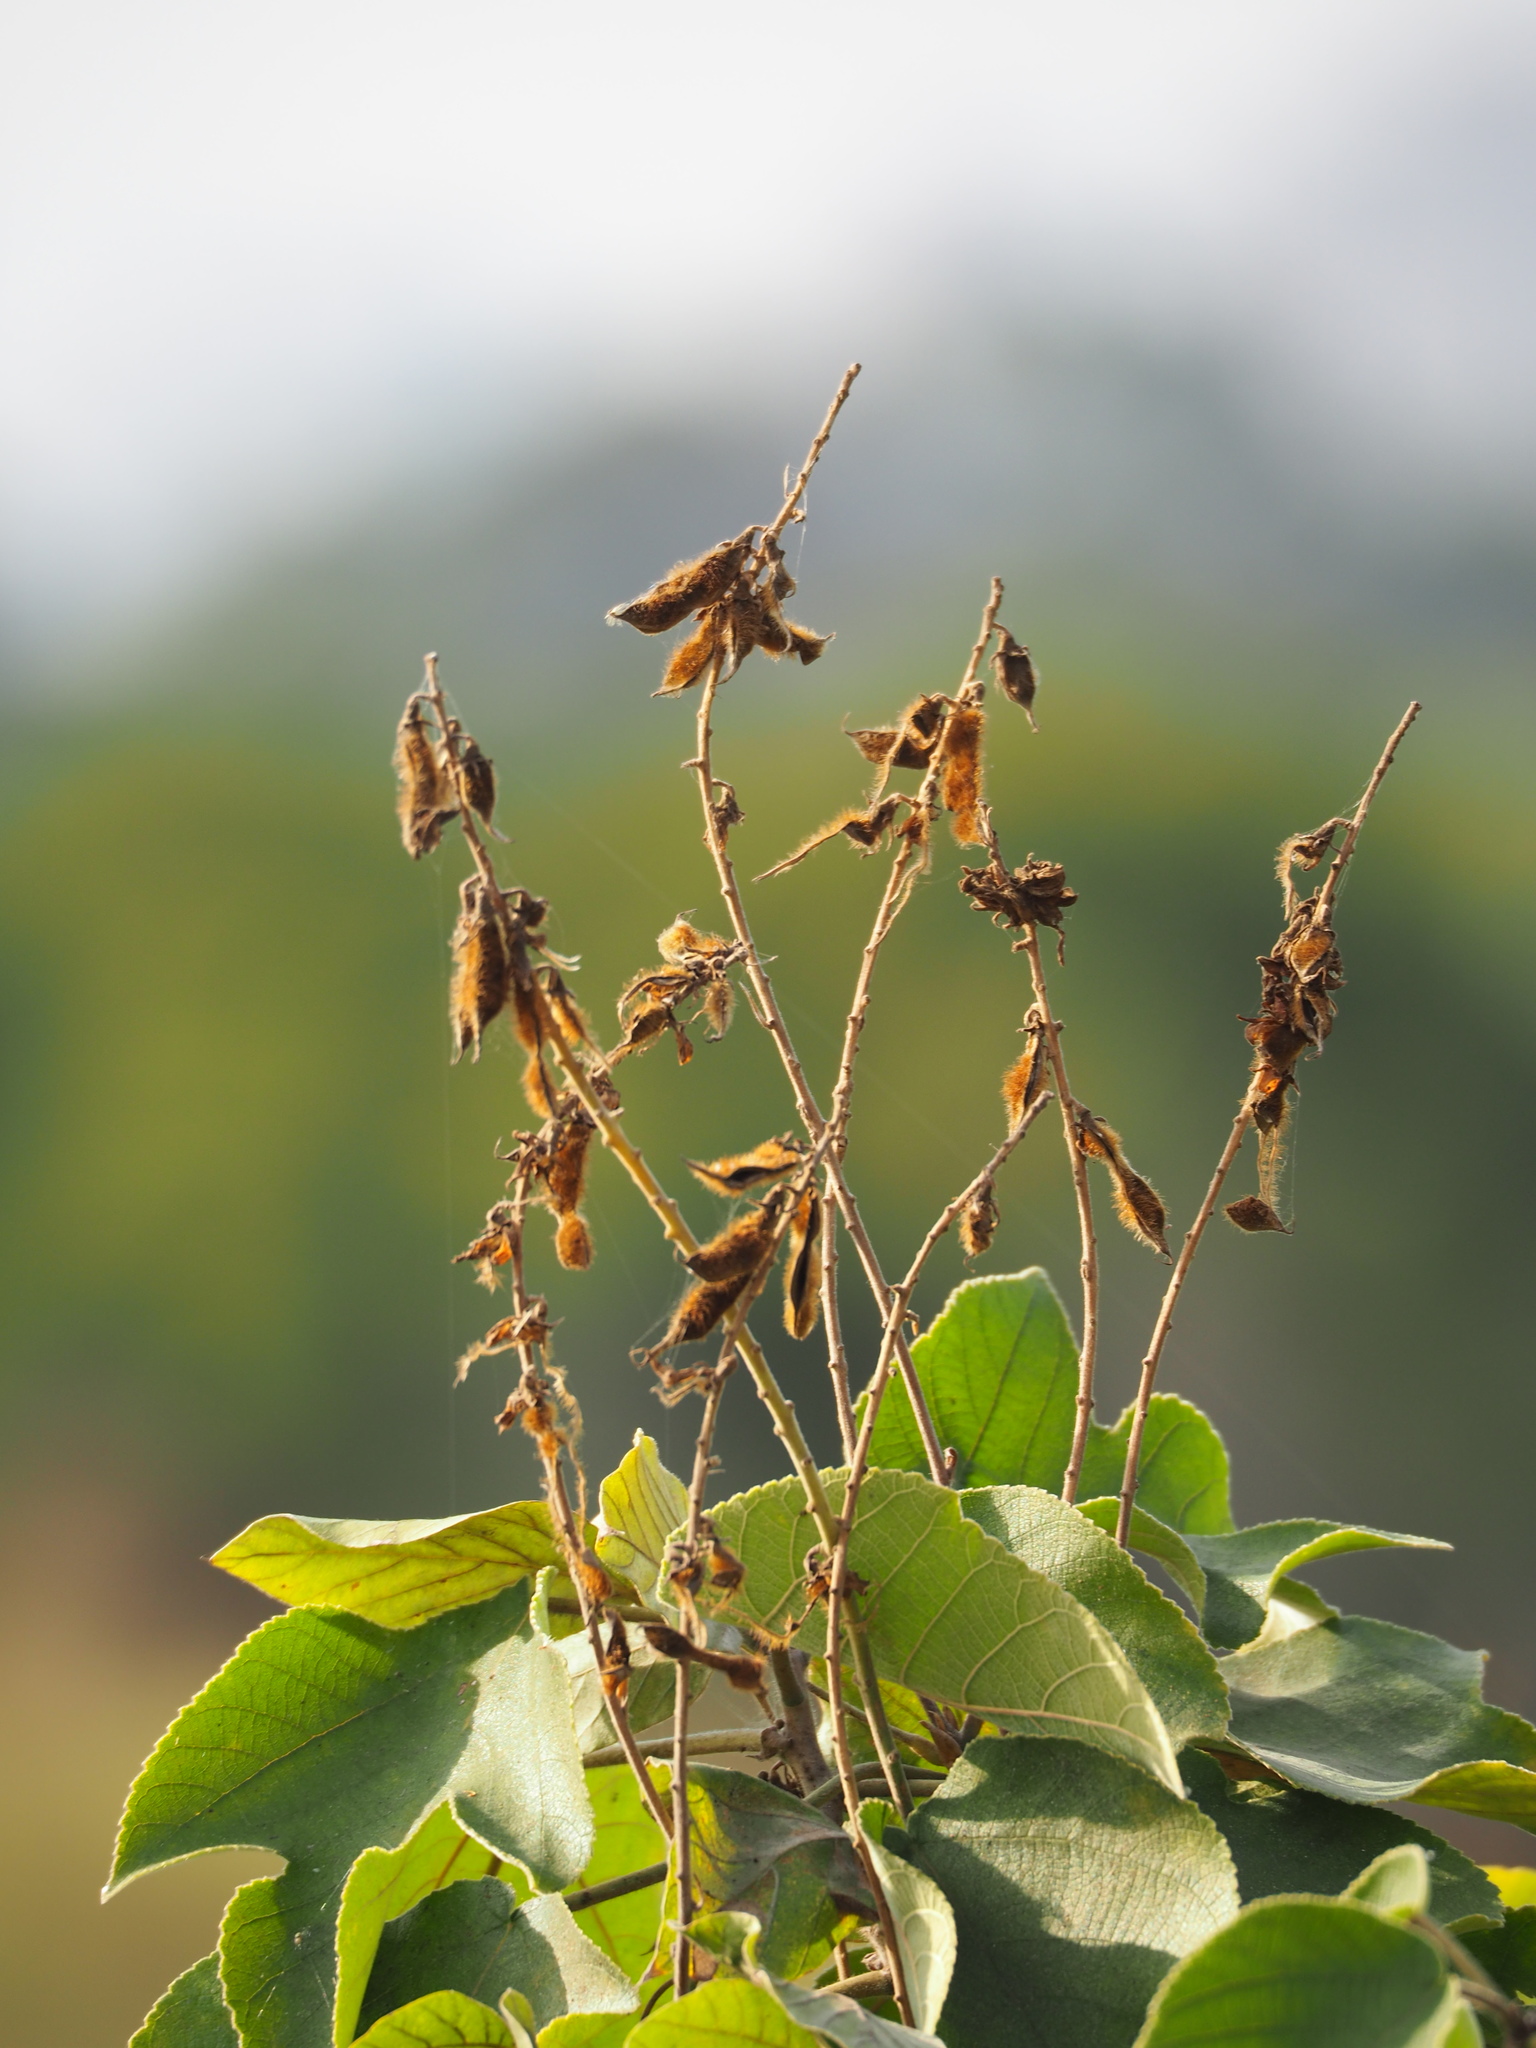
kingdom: Plantae
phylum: Tracheophyta
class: Magnoliopsida
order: Fabales
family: Fabaceae
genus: Pueraria
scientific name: Pueraria montana
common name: Kudzu
